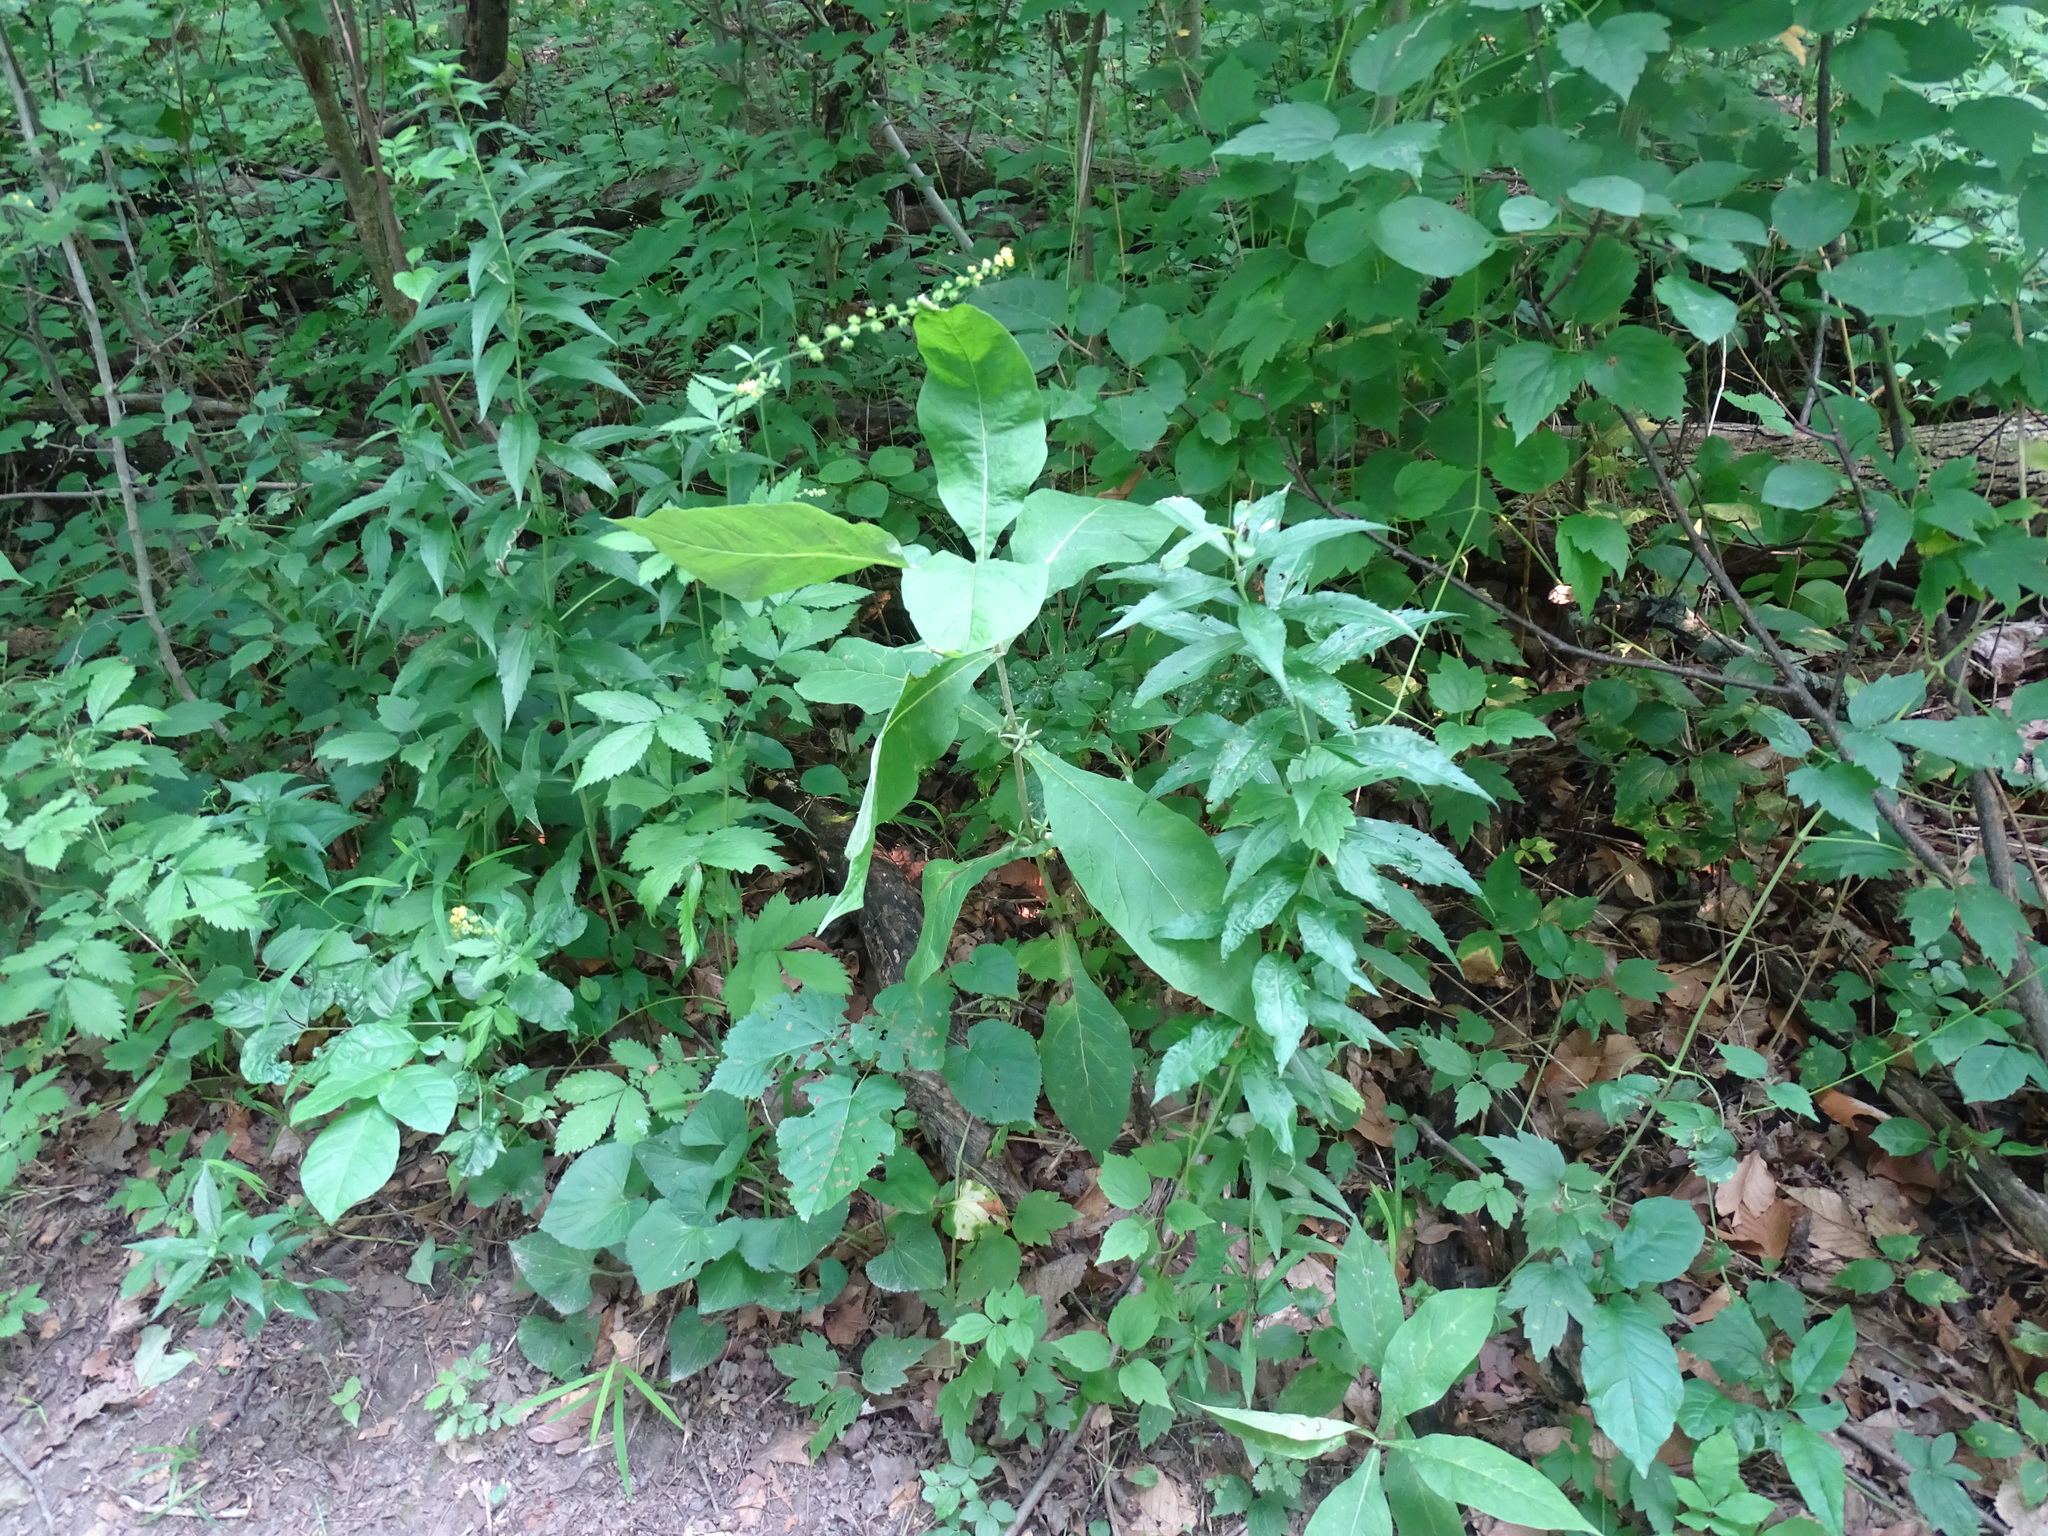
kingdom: Plantae
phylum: Tracheophyta
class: Magnoliopsida
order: Dipsacales
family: Caprifoliaceae
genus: Triosteum
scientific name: Triosteum perfoliatum
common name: Common horse-gentian
